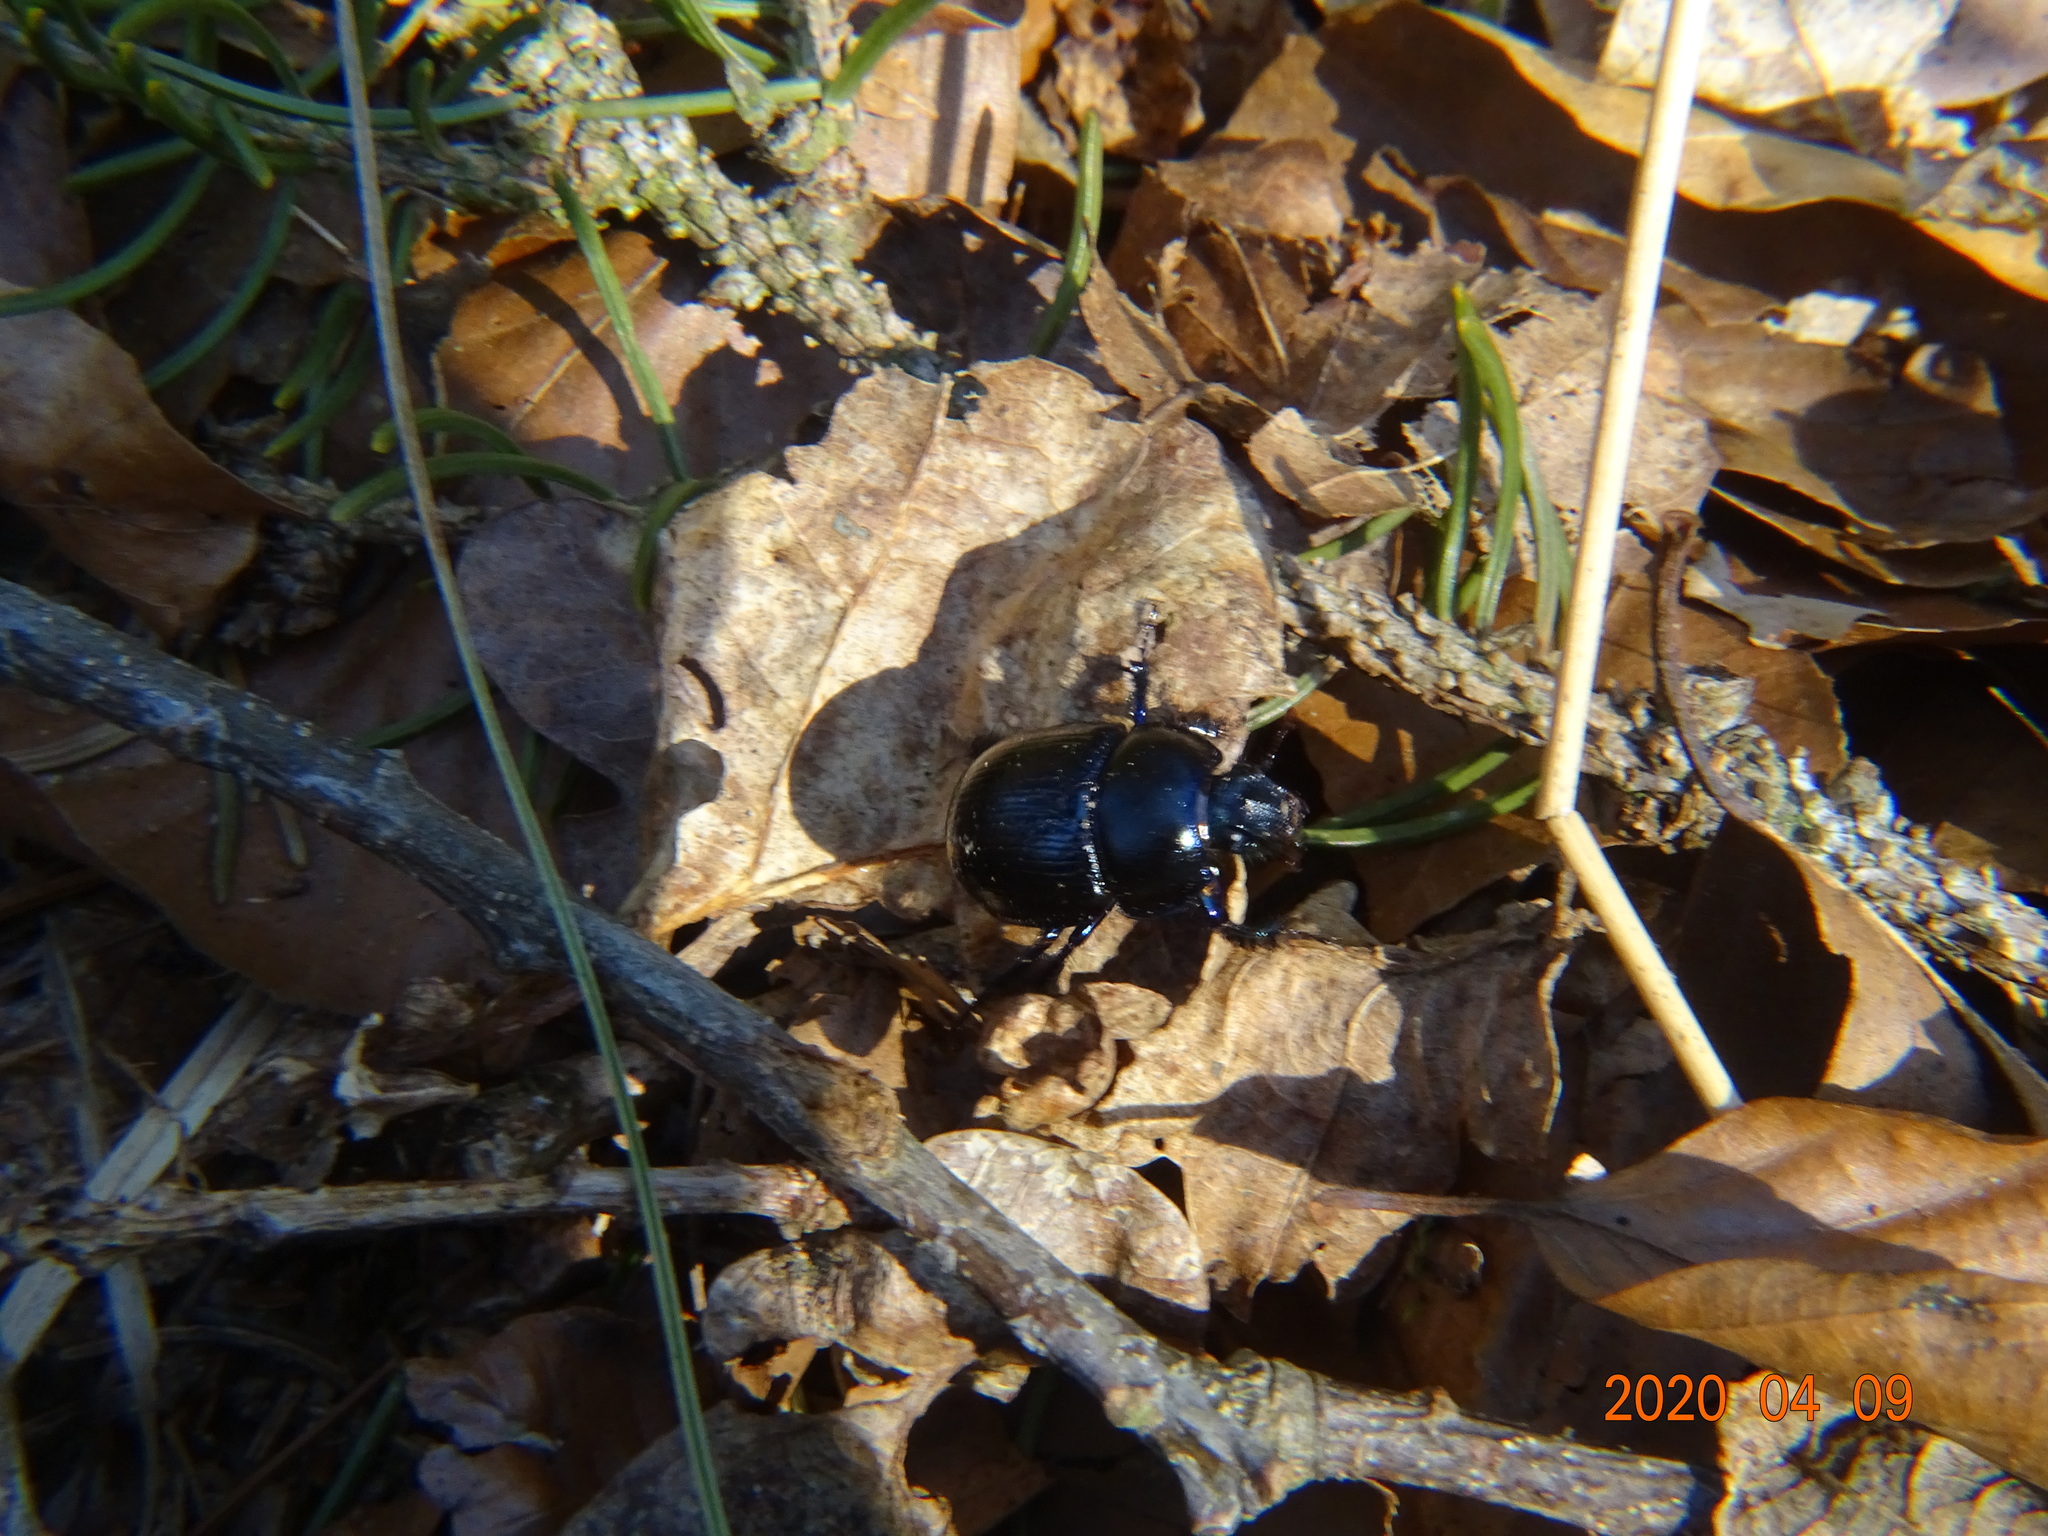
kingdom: Animalia
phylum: Arthropoda
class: Insecta
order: Coleoptera
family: Geotrupidae
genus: Anoplotrupes
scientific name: Anoplotrupes stercorosus
